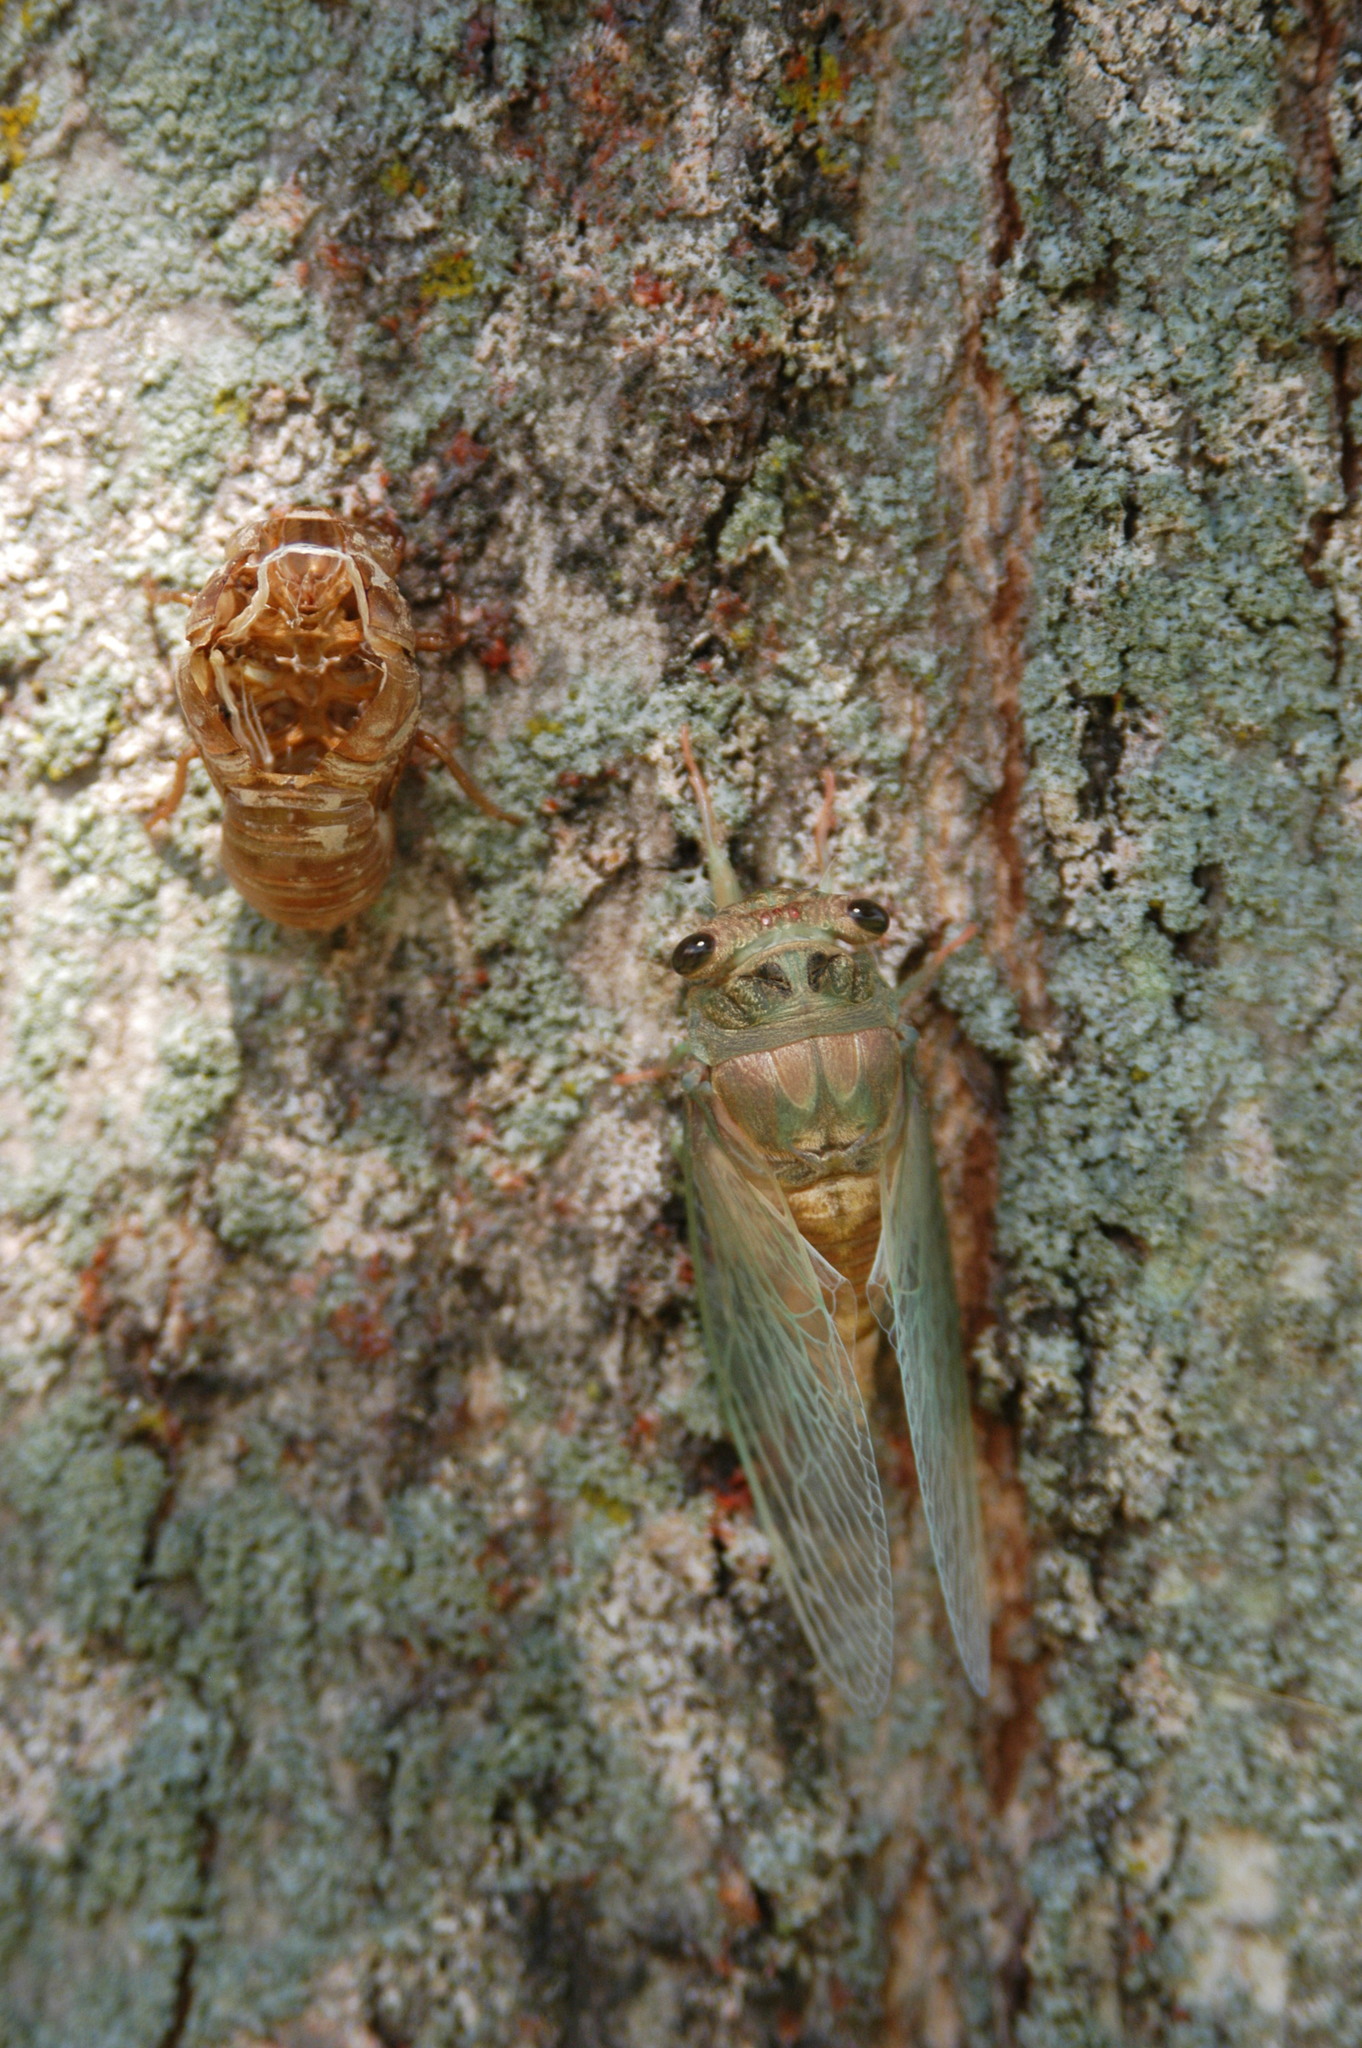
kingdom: Animalia
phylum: Arthropoda
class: Insecta
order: Hemiptera
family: Cicadidae
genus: Neotibicen
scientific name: Neotibicen tibicen
